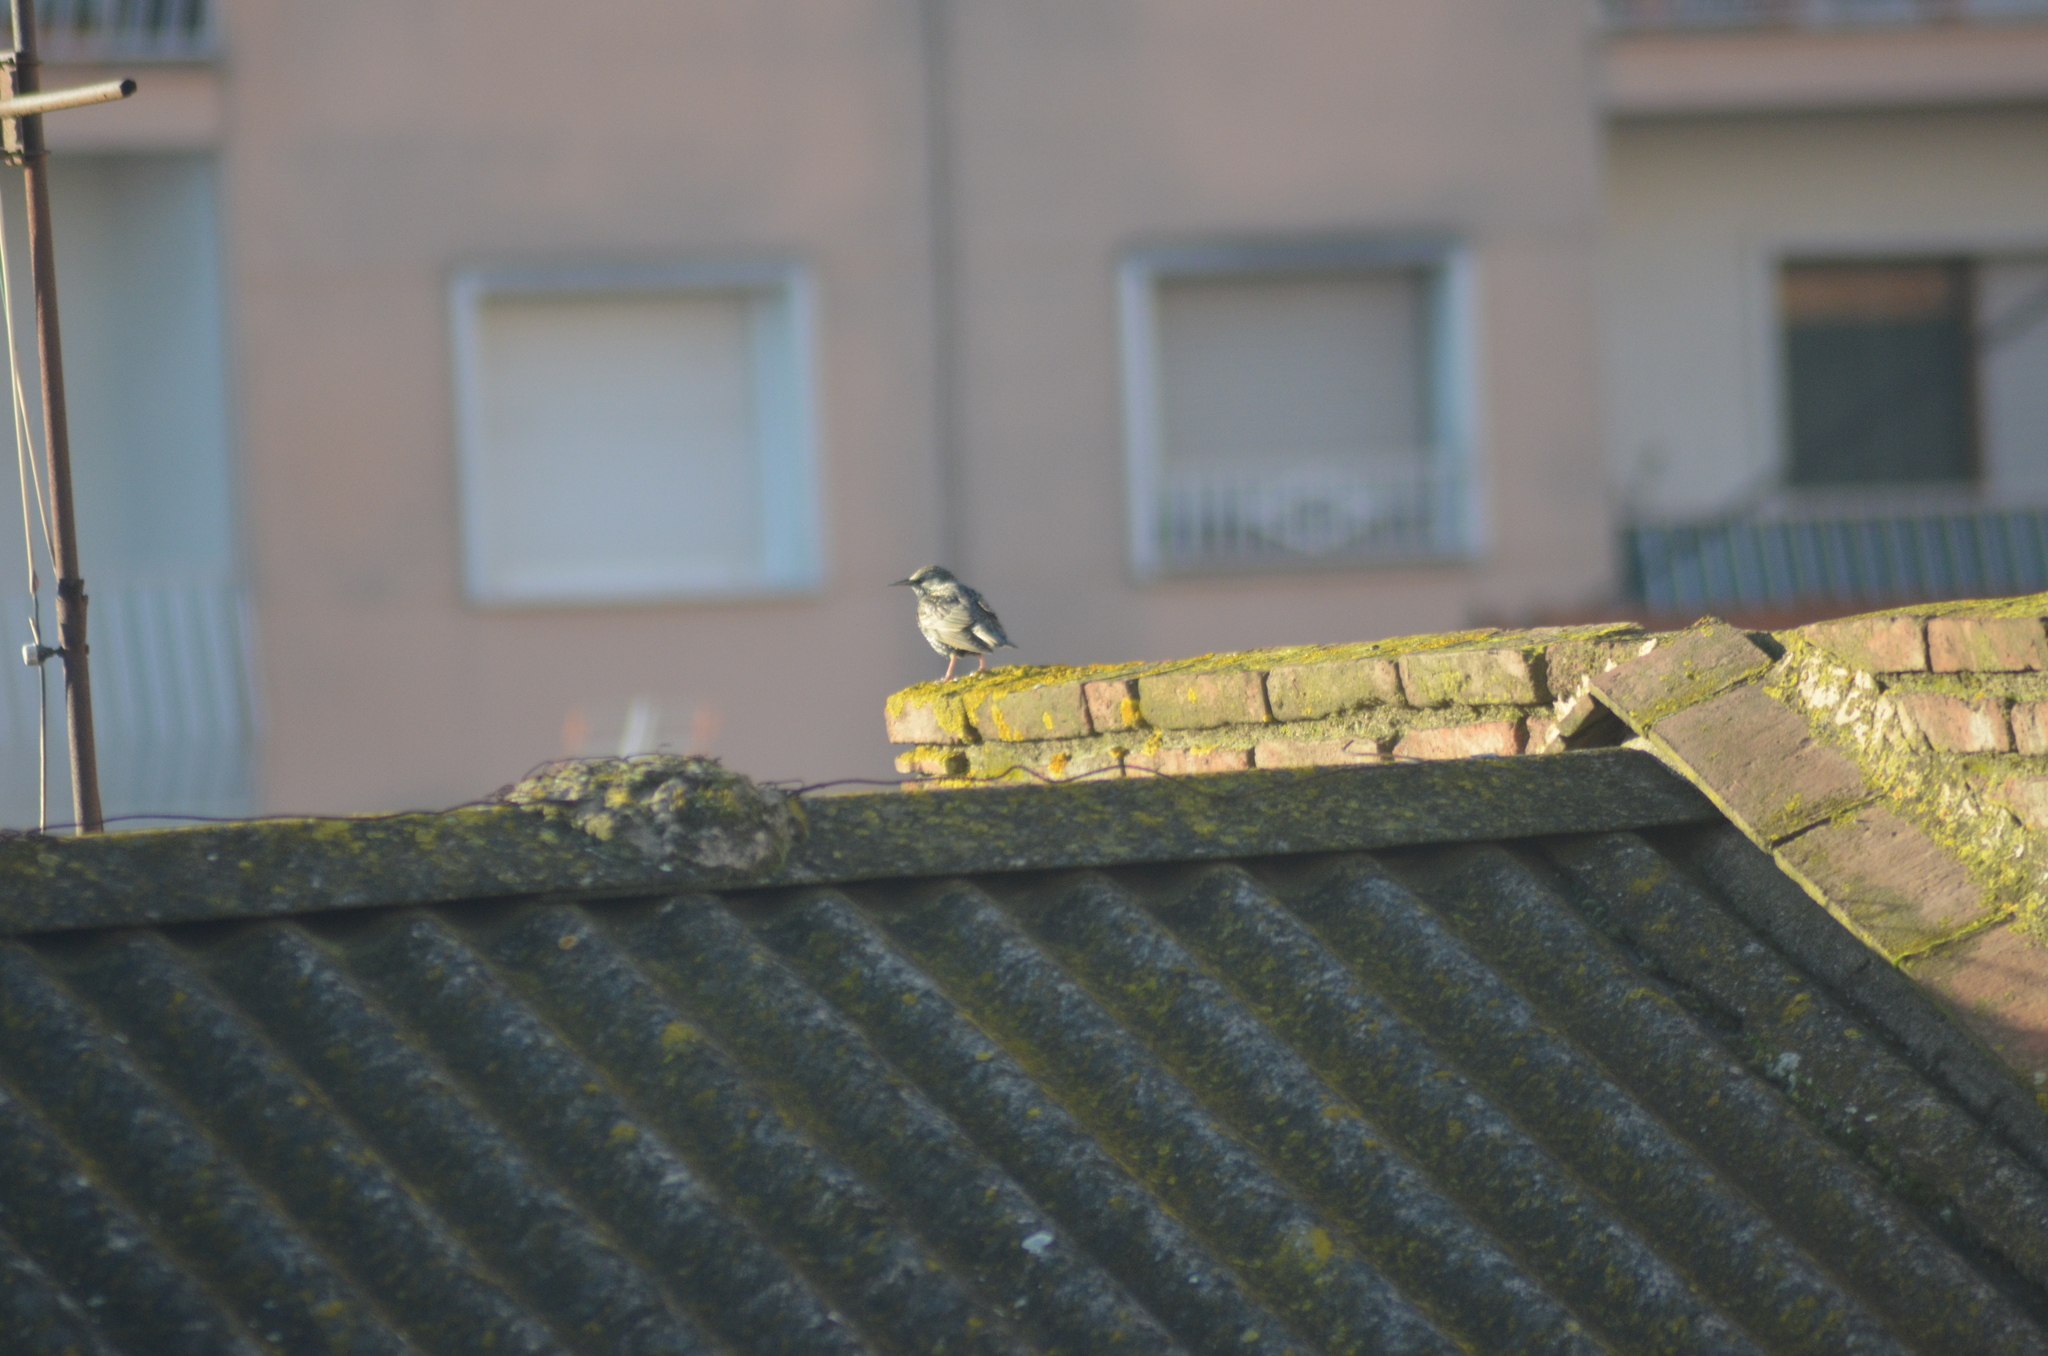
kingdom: Animalia
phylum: Chordata
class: Aves
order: Passeriformes
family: Sturnidae
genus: Sturnus
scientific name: Sturnus vulgaris
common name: Common starling
